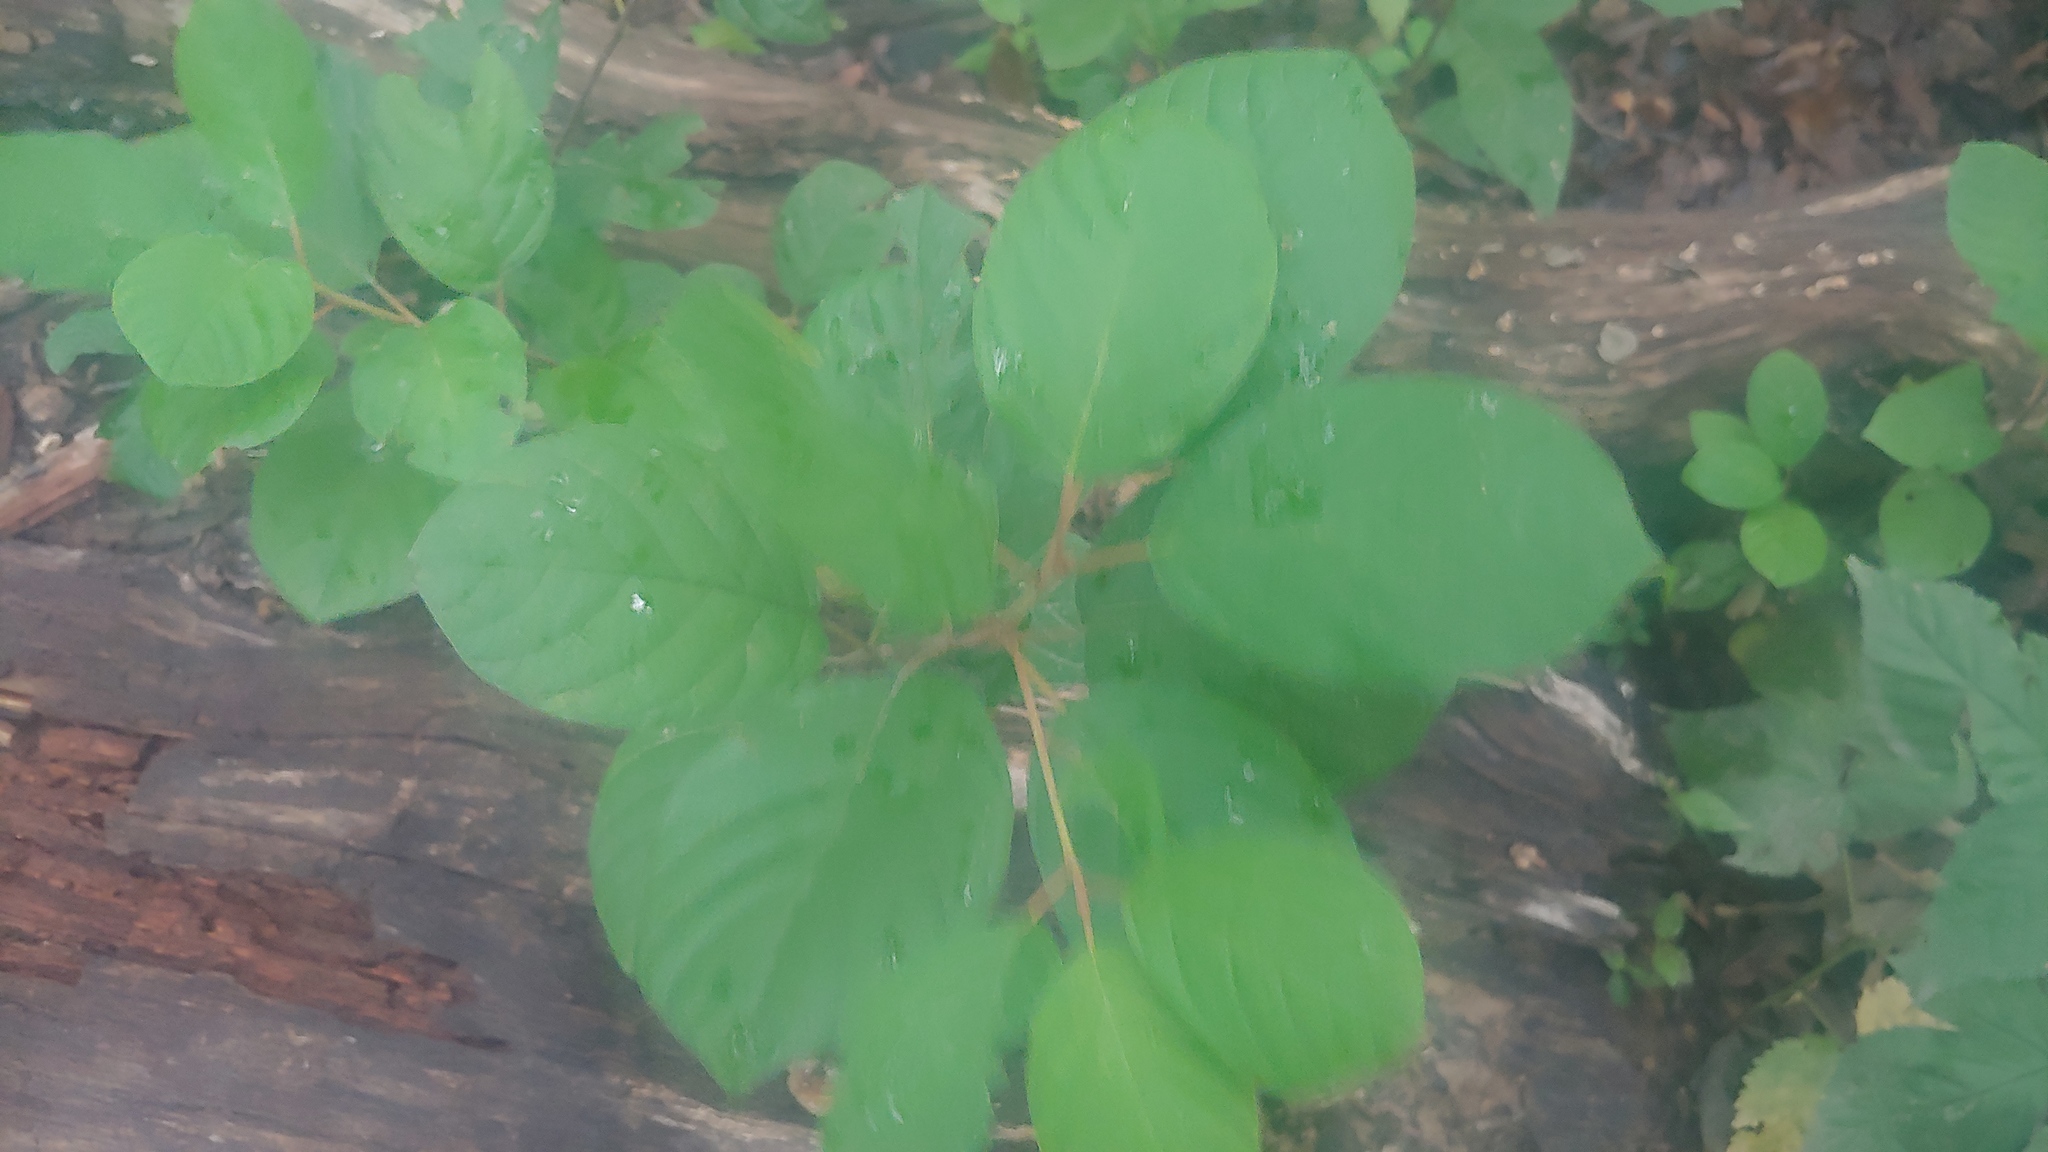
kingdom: Plantae
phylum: Tracheophyta
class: Magnoliopsida
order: Rosales
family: Rhamnaceae
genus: Frangula
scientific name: Frangula alnus
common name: Alder buckthorn
